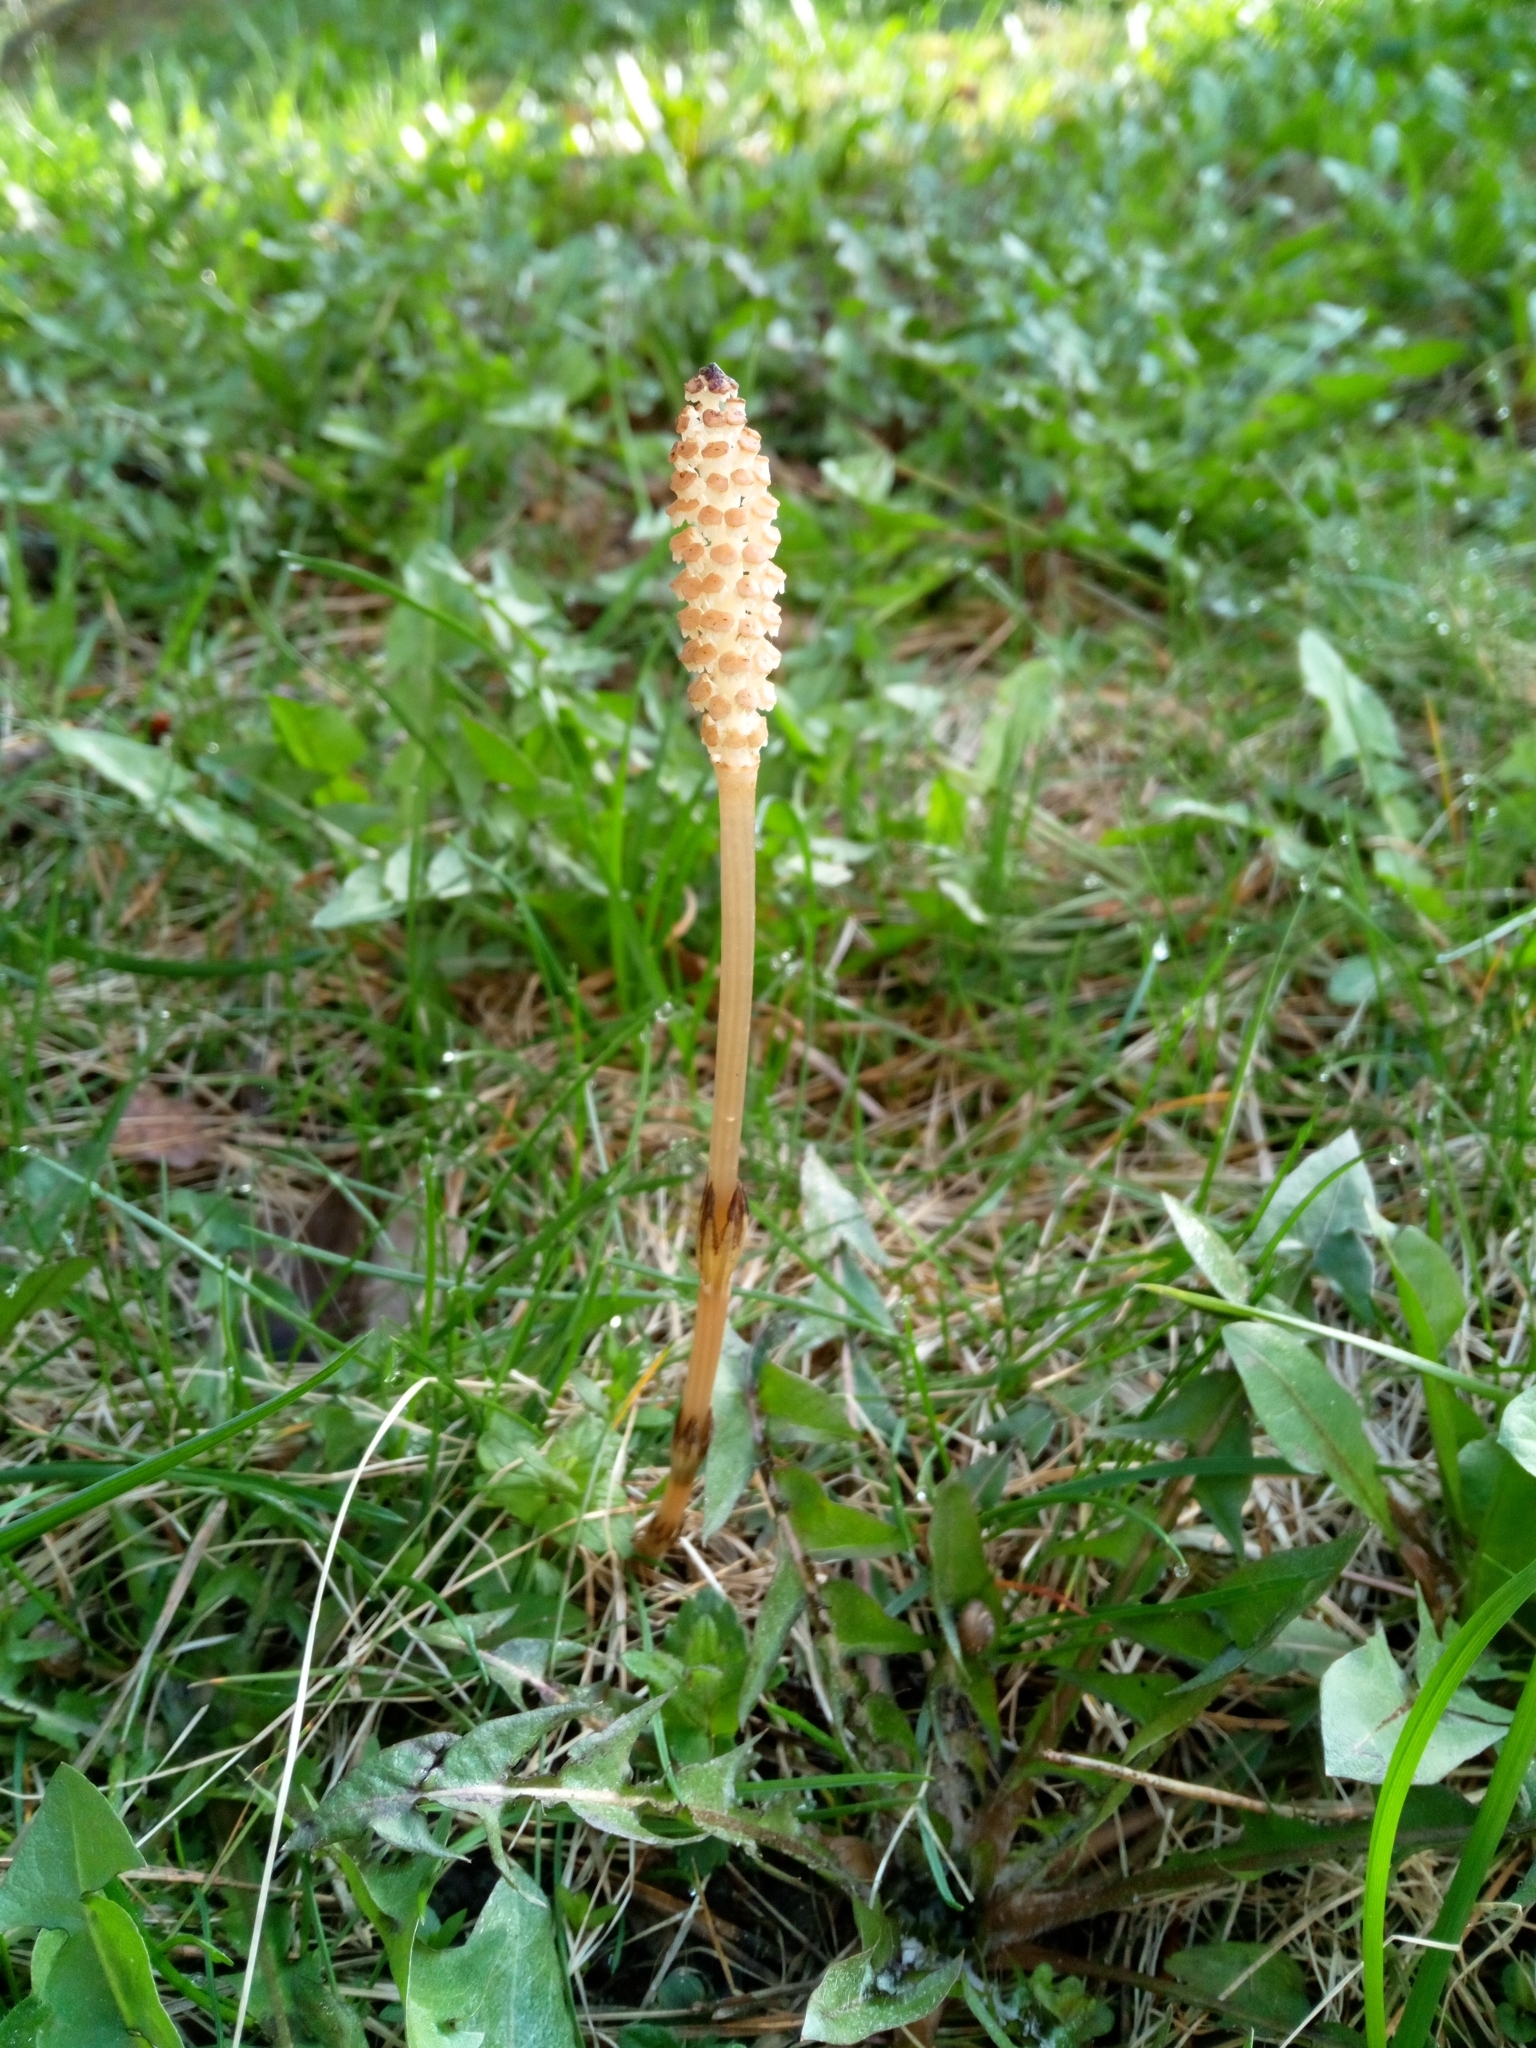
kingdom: Plantae
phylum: Tracheophyta
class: Polypodiopsida
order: Equisetales
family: Equisetaceae
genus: Equisetum
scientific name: Equisetum arvense
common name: Field horsetail
